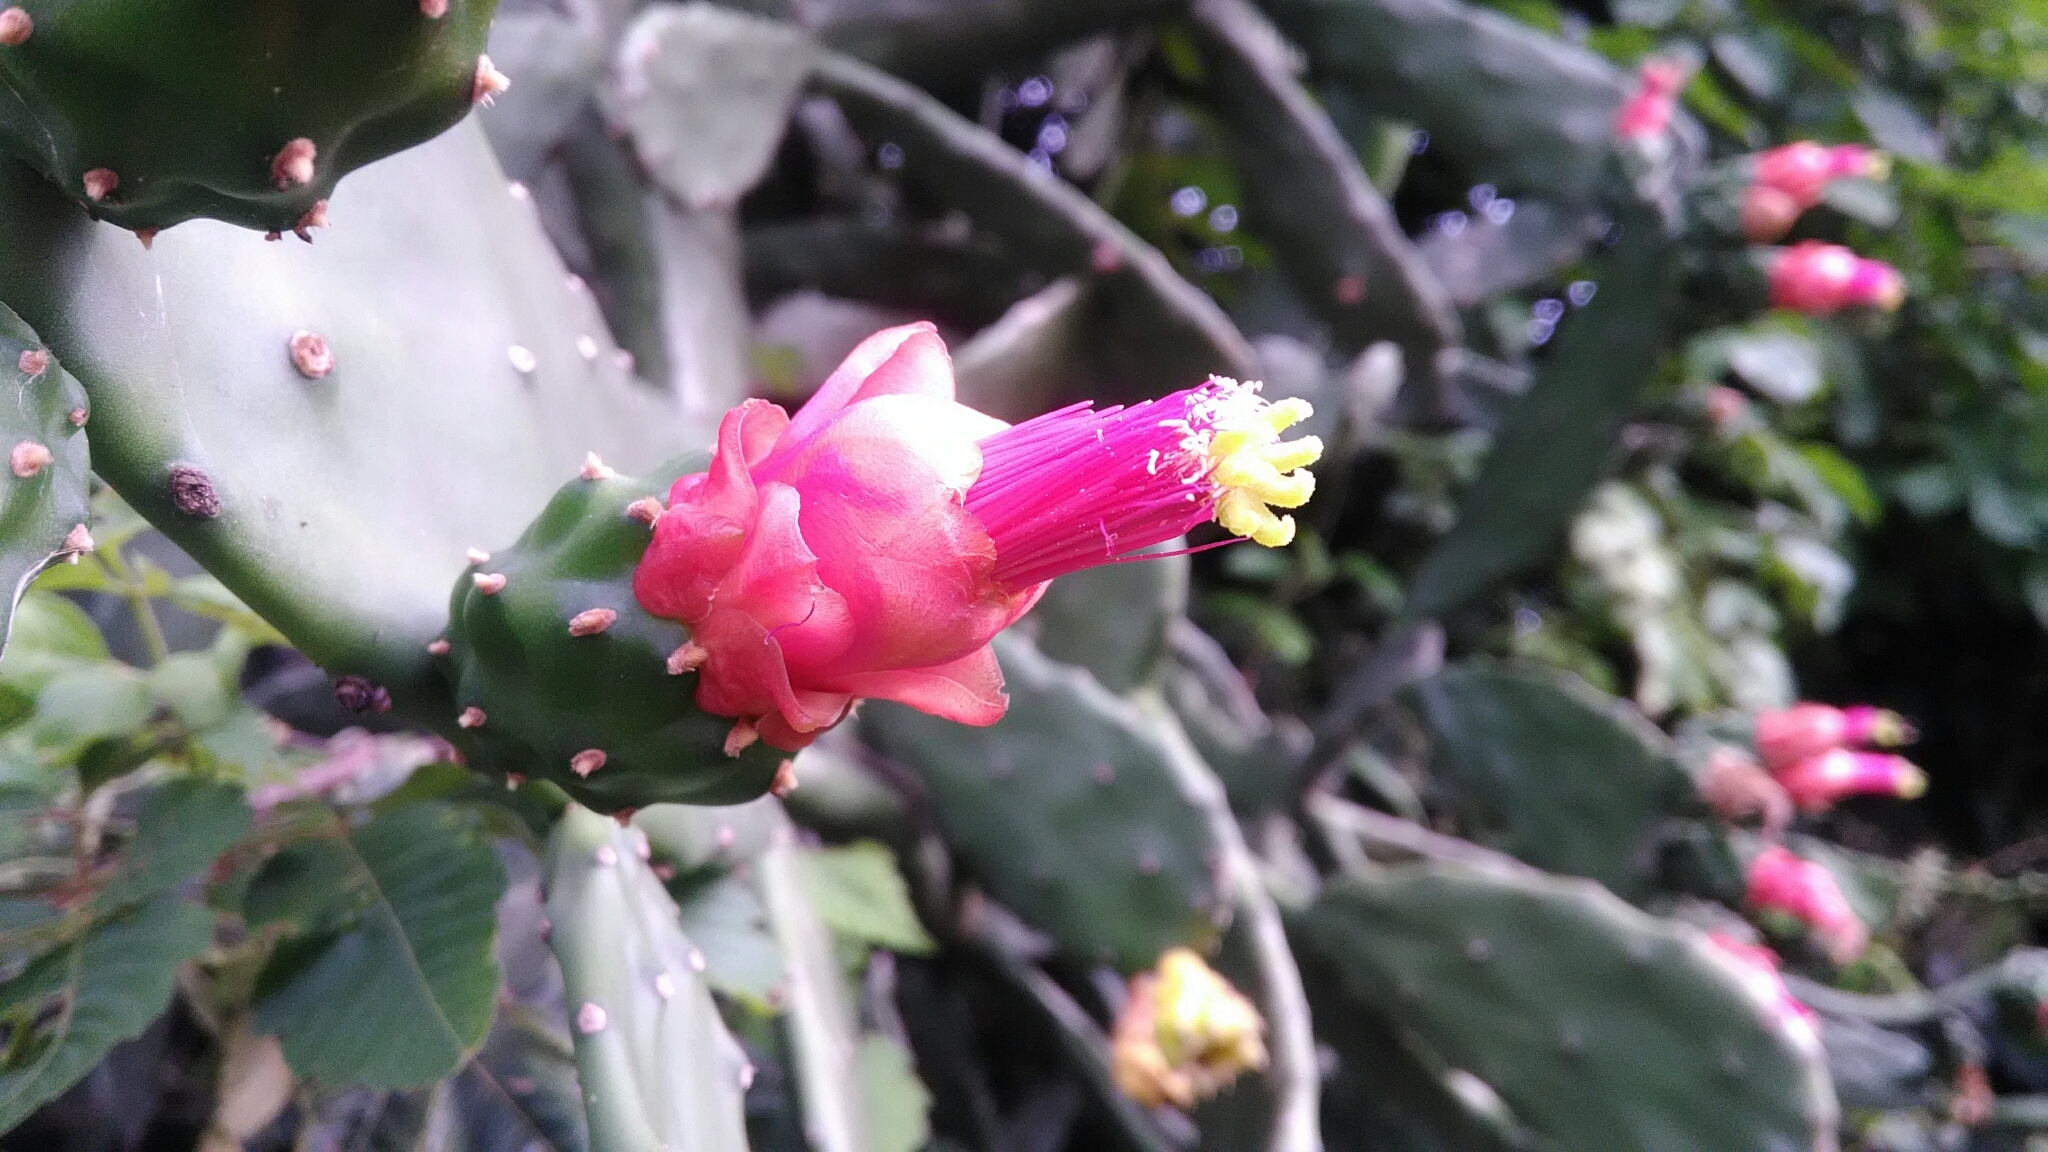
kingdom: Plantae
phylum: Tracheophyta
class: Magnoliopsida
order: Caryophyllales
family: Cactaceae
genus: Opuntia
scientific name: Opuntia cochenillifera
